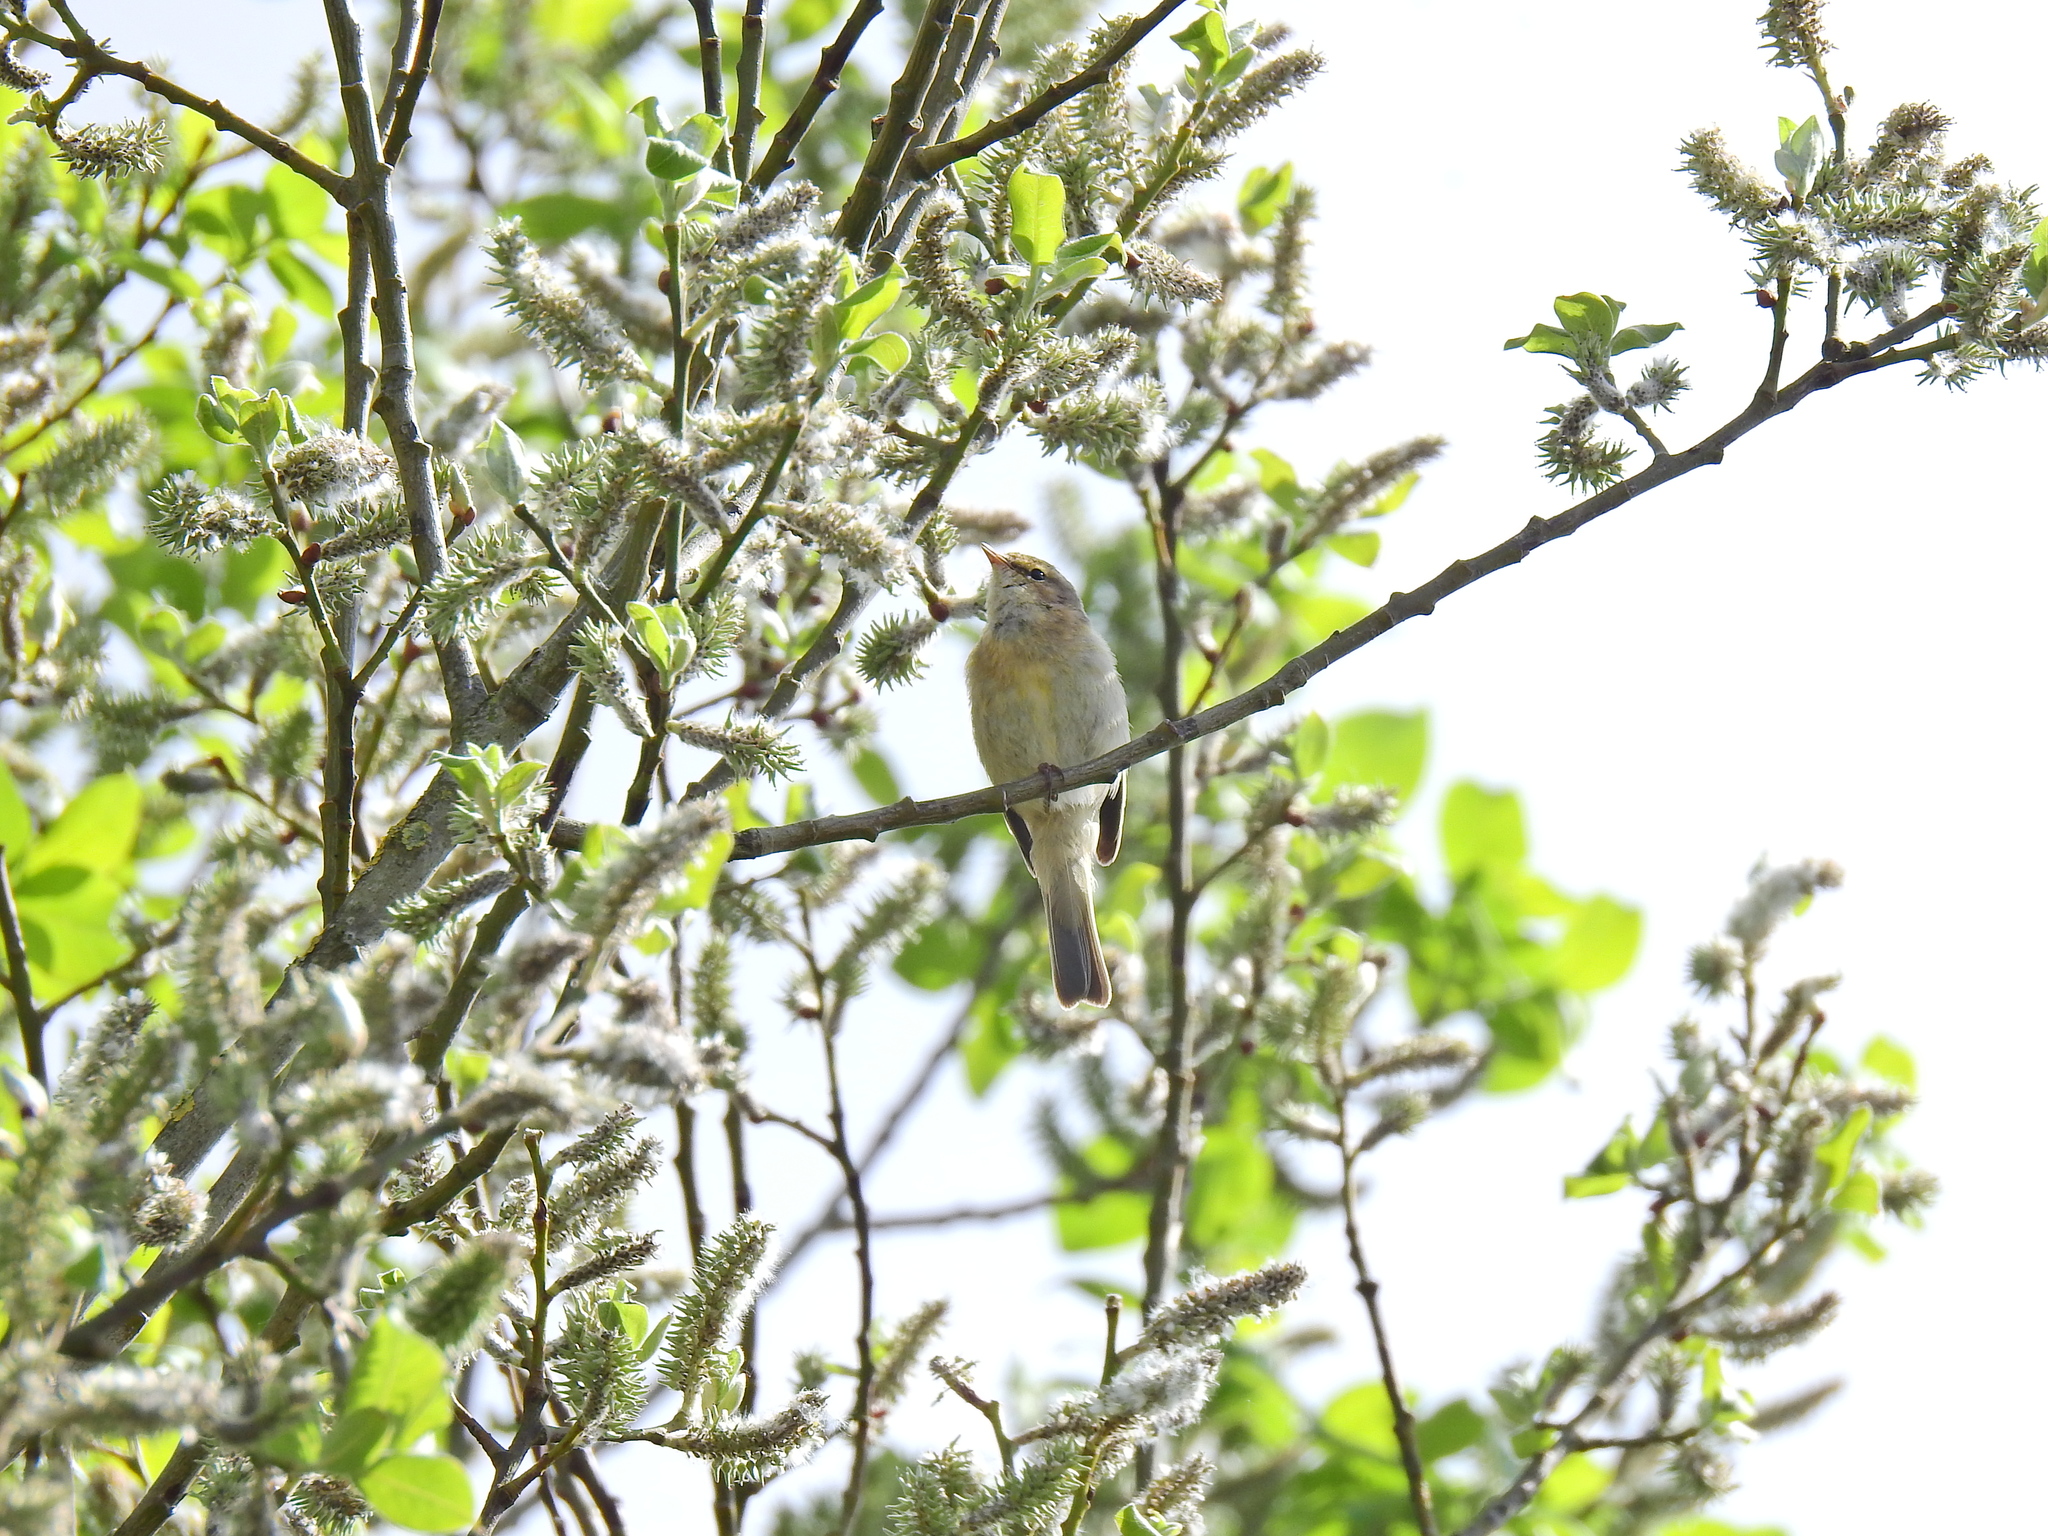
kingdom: Animalia
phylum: Chordata
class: Aves
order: Passeriformes
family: Phylloscopidae
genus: Phylloscopus
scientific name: Phylloscopus collybita
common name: Common chiffchaff
